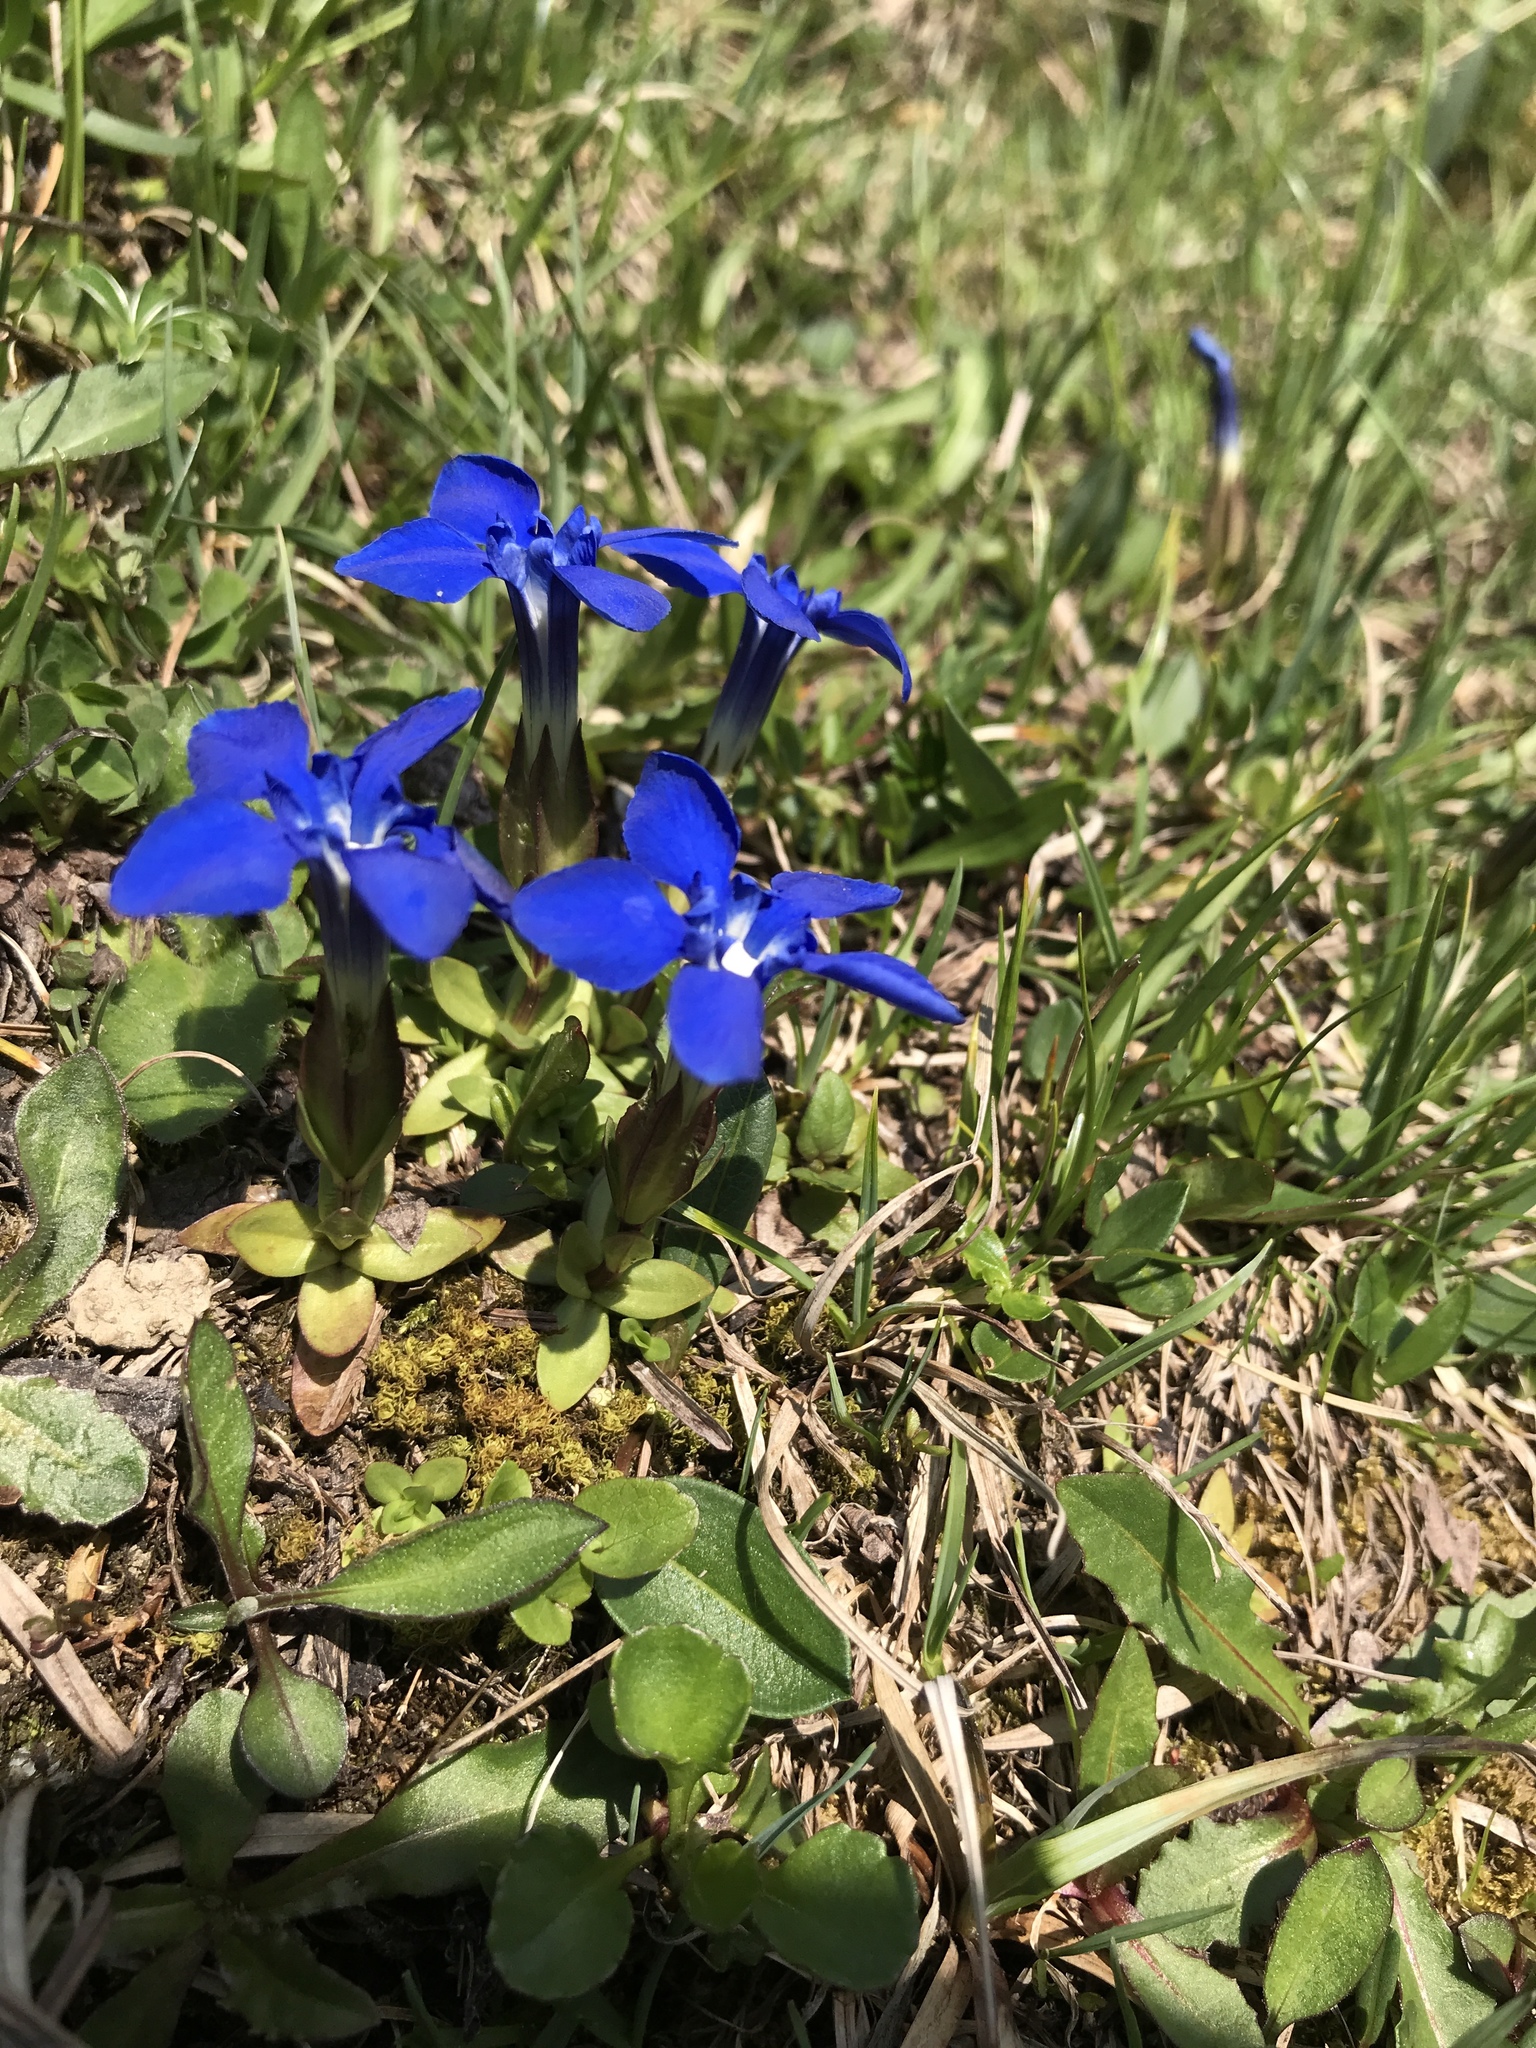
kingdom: Plantae
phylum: Tracheophyta
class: Magnoliopsida
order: Gentianales
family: Gentianaceae
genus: Gentiana
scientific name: Gentiana verna
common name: Spring gentian
